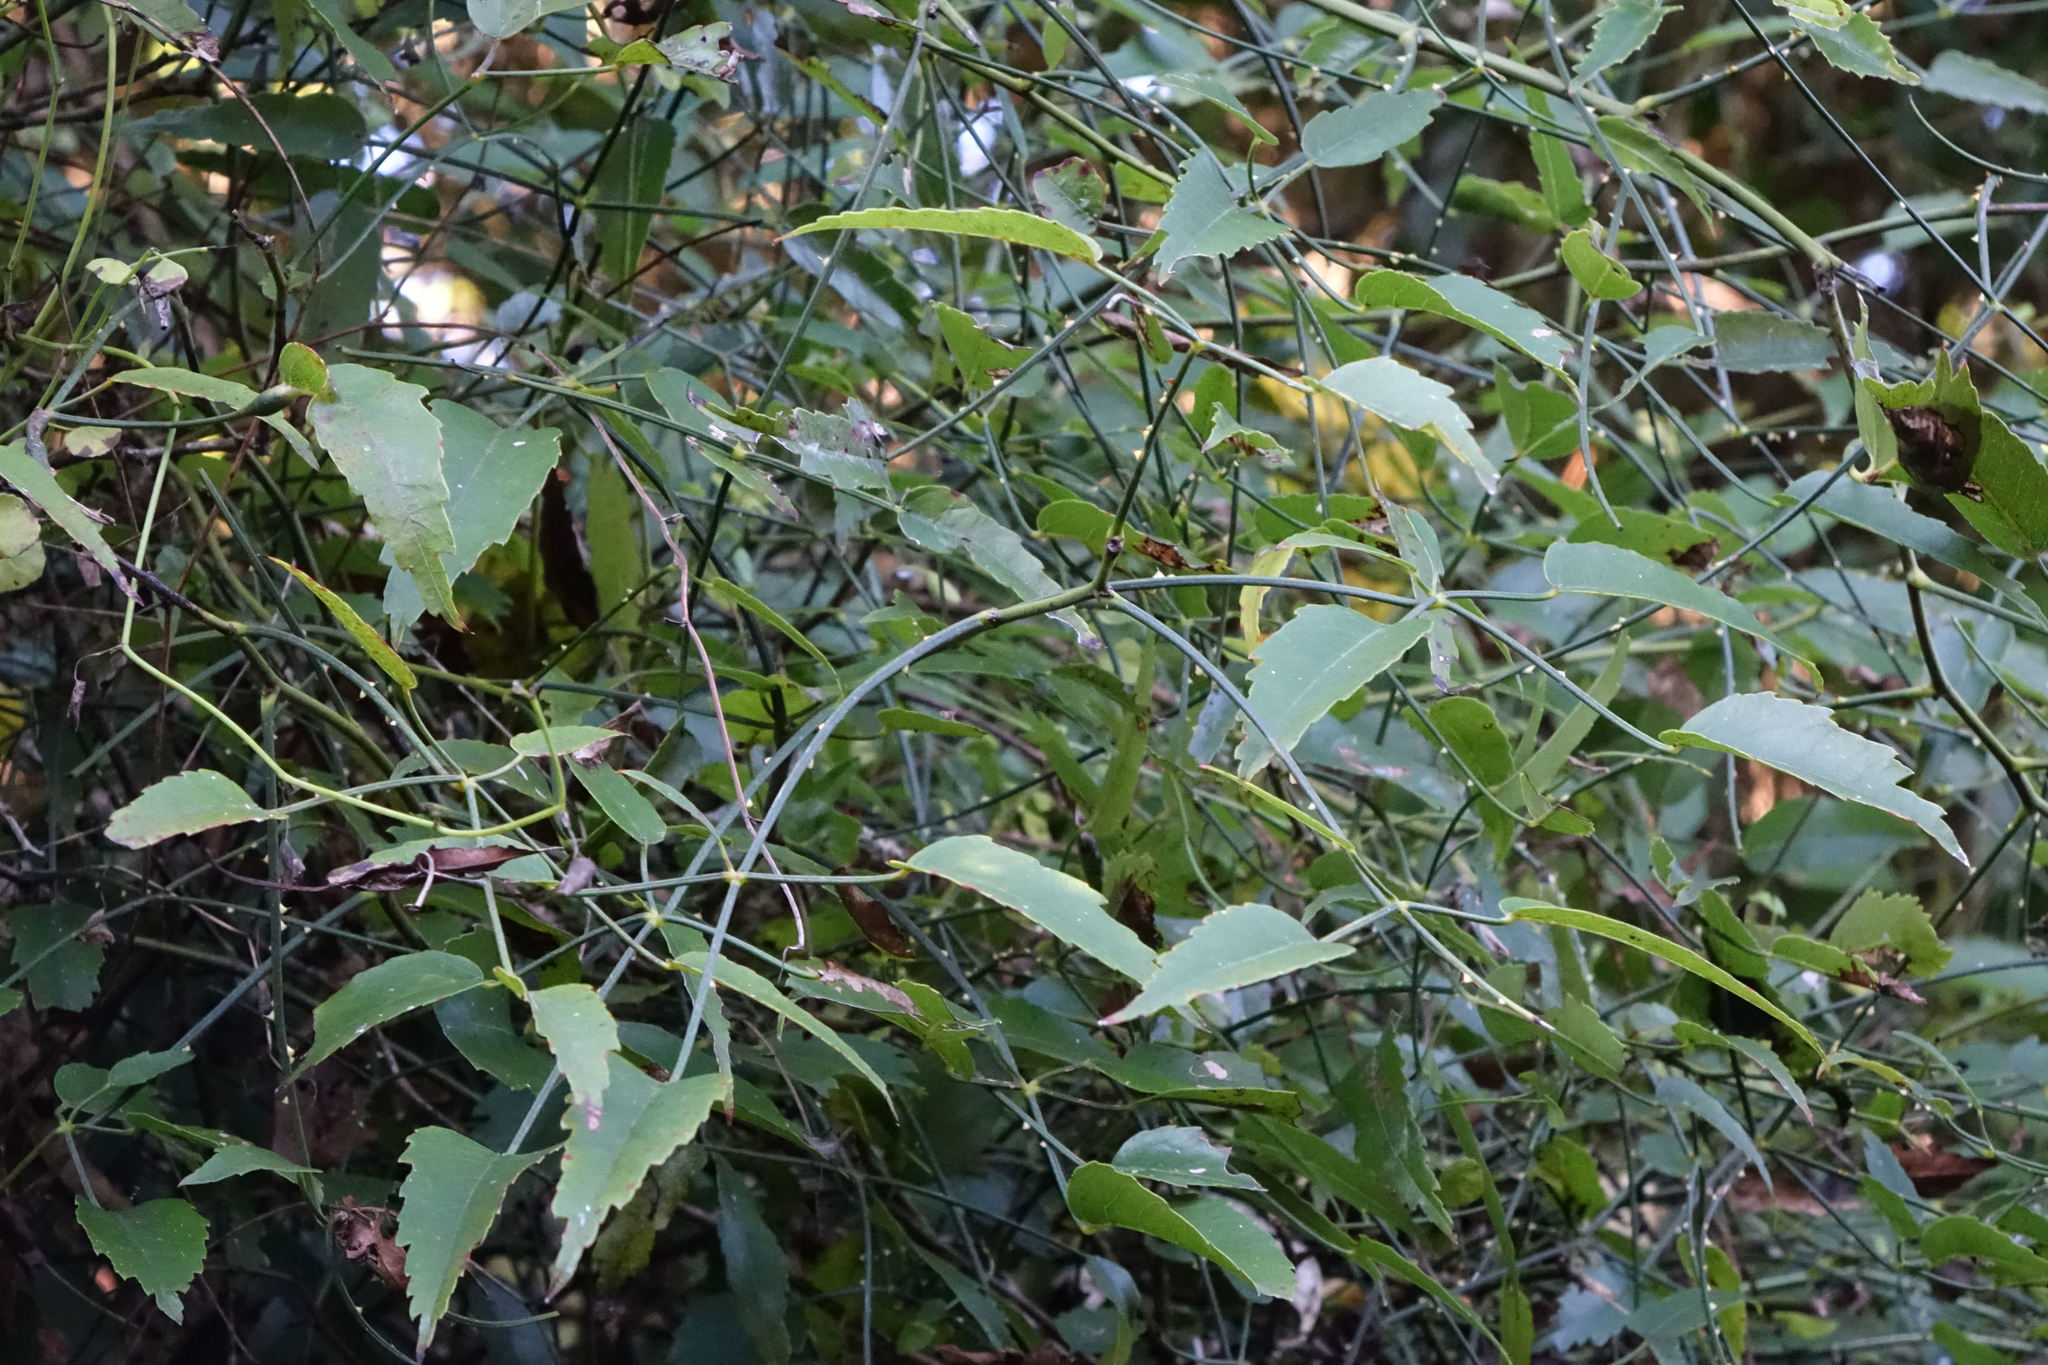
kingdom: Plantae
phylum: Tracheophyta
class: Magnoliopsida
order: Rosales
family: Rosaceae
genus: Rubus
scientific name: Rubus squarrosus
